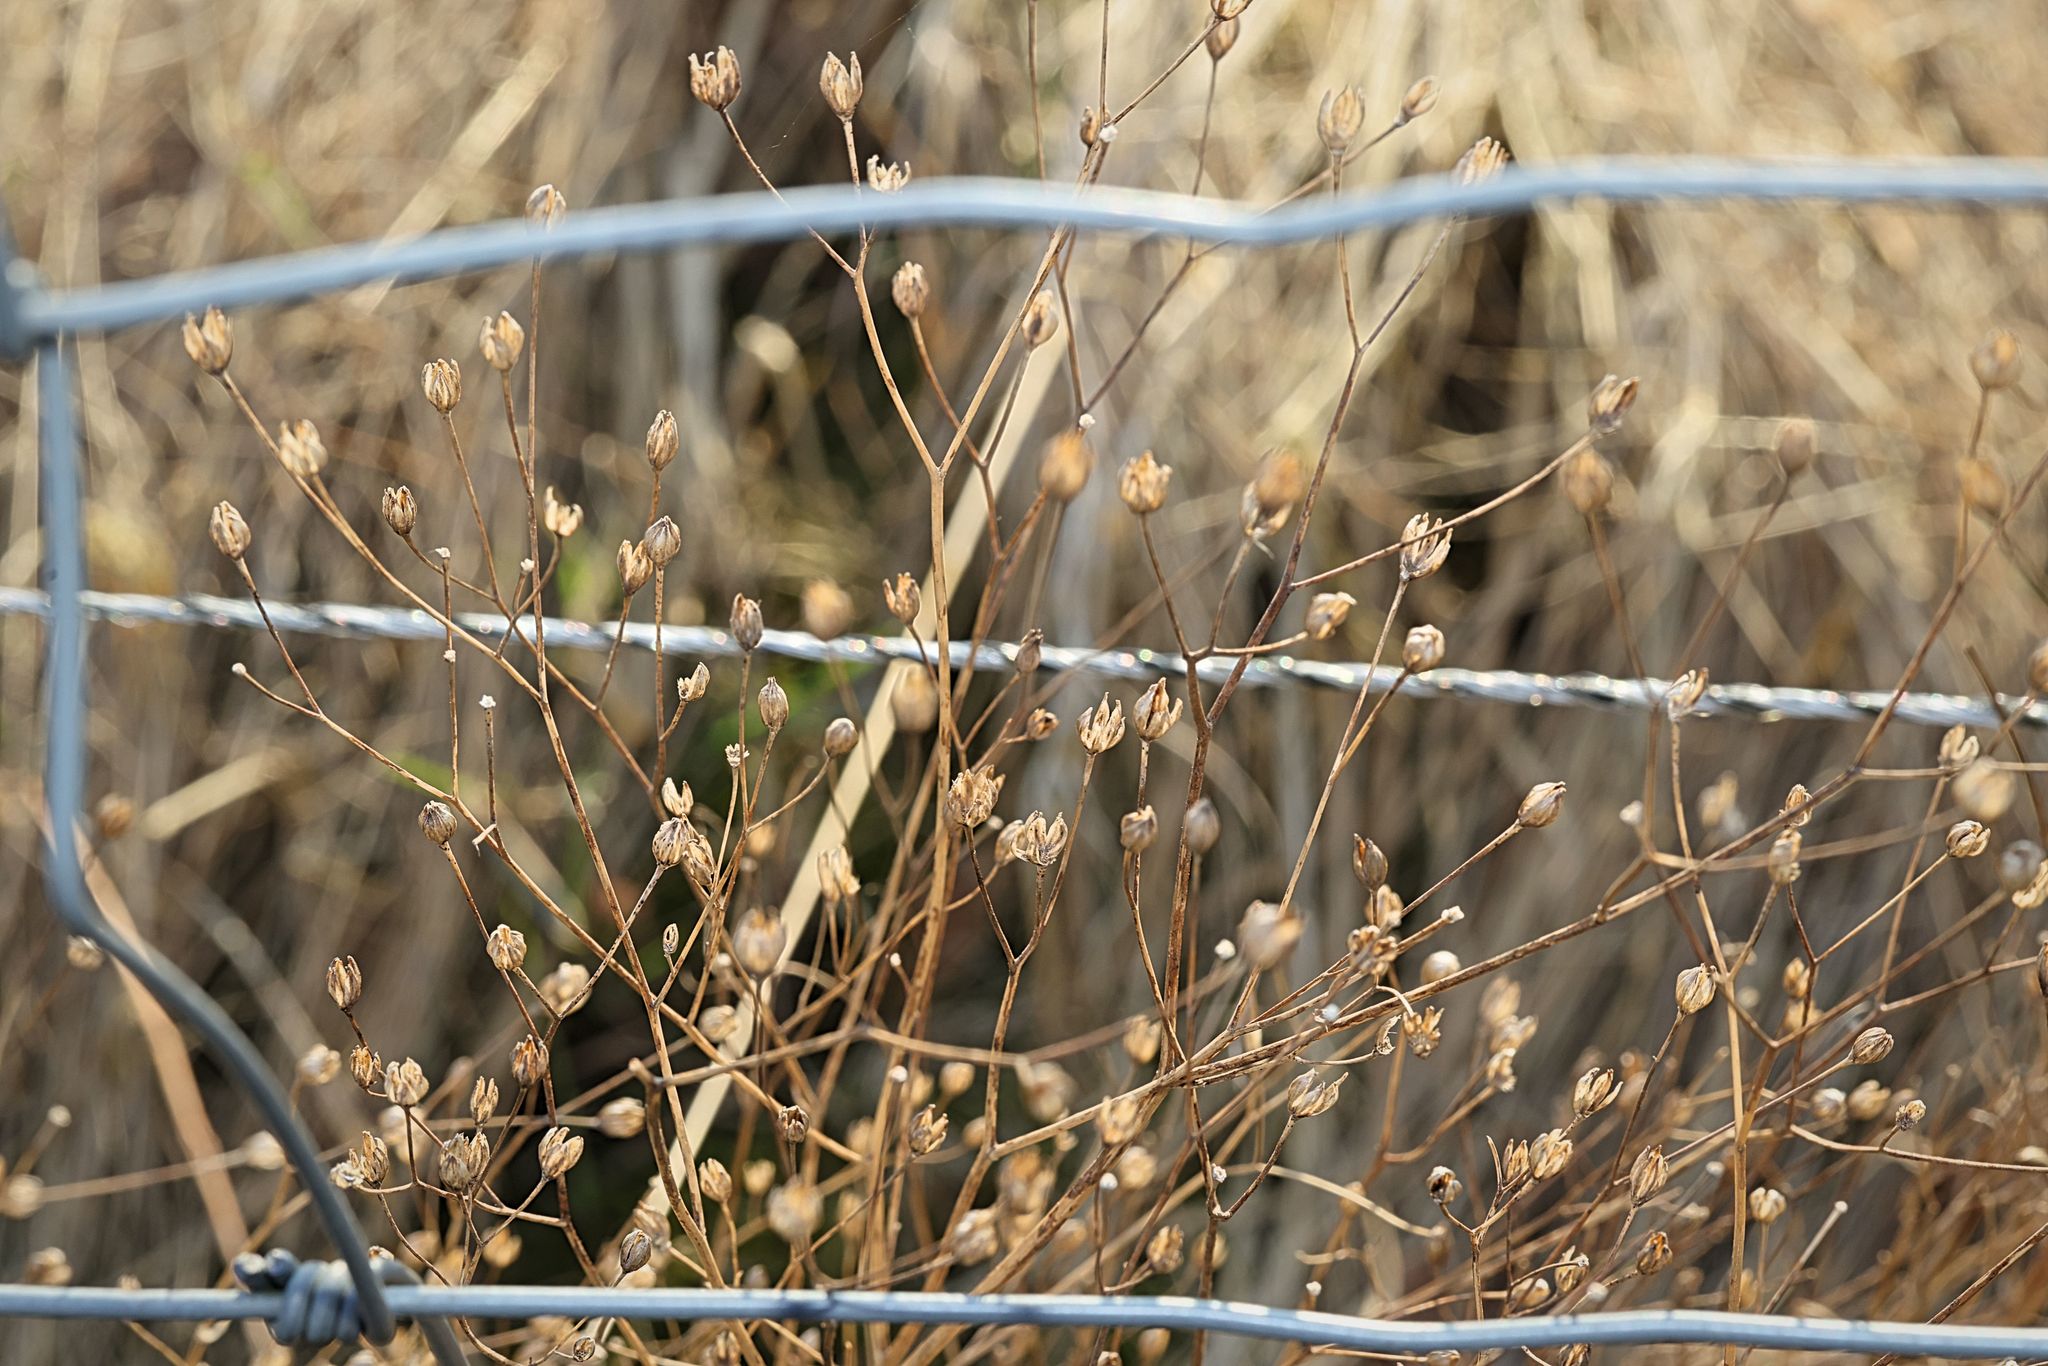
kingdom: Plantae
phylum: Tracheophyta
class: Magnoliopsida
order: Asterales
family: Asteraceae
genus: Lapsana
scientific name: Lapsana communis
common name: Nipplewort
